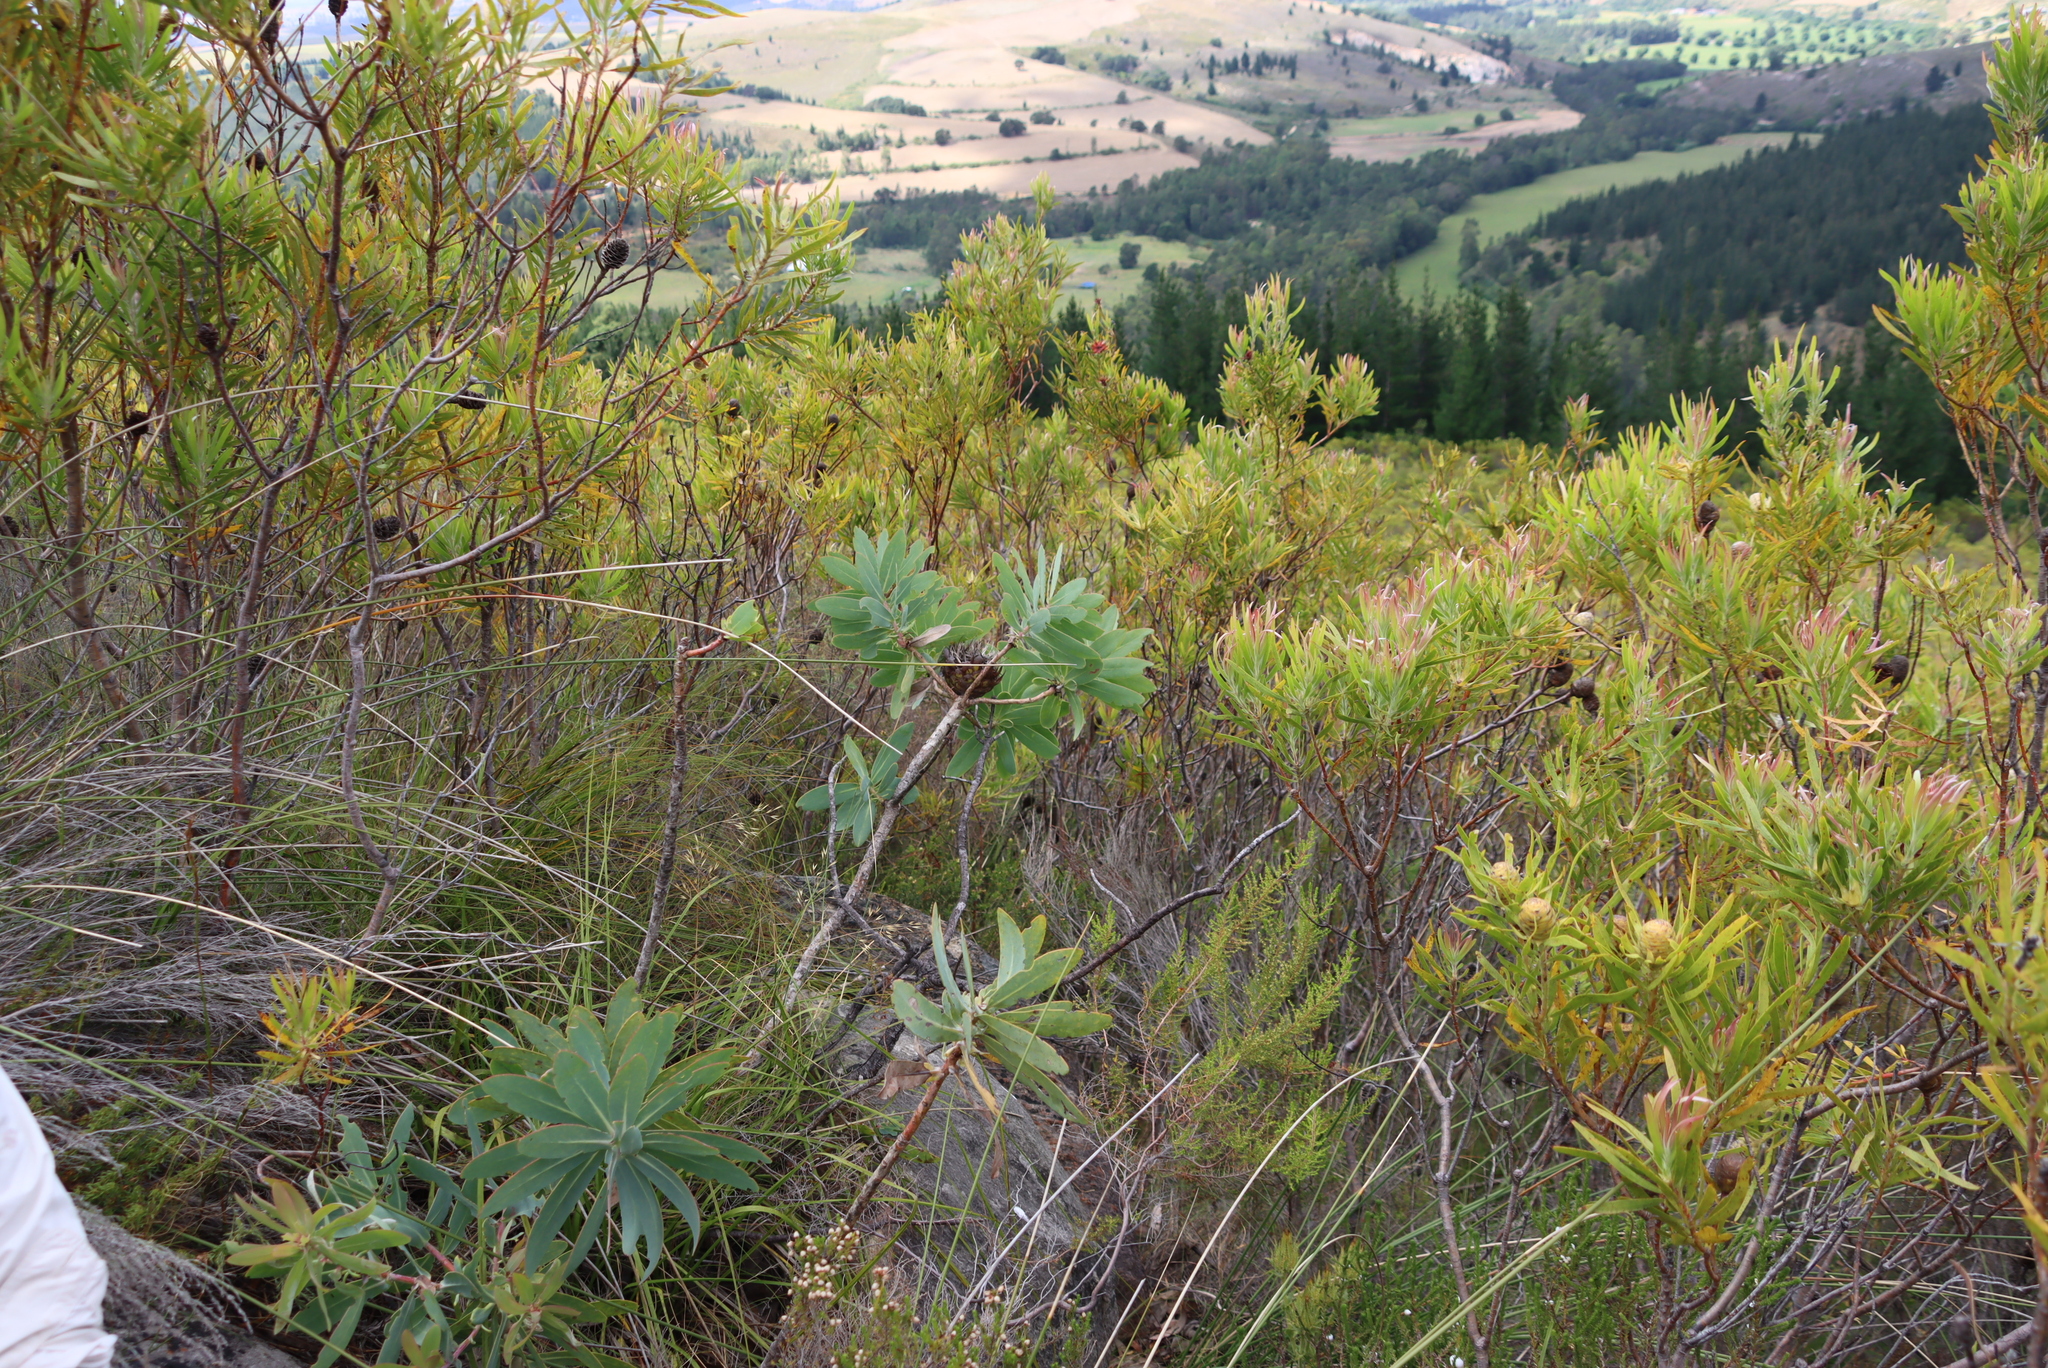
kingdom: Plantae
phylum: Tracheophyta
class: Magnoliopsida
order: Proteales
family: Proteaceae
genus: Protea
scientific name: Protea nitida
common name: Tree protea
